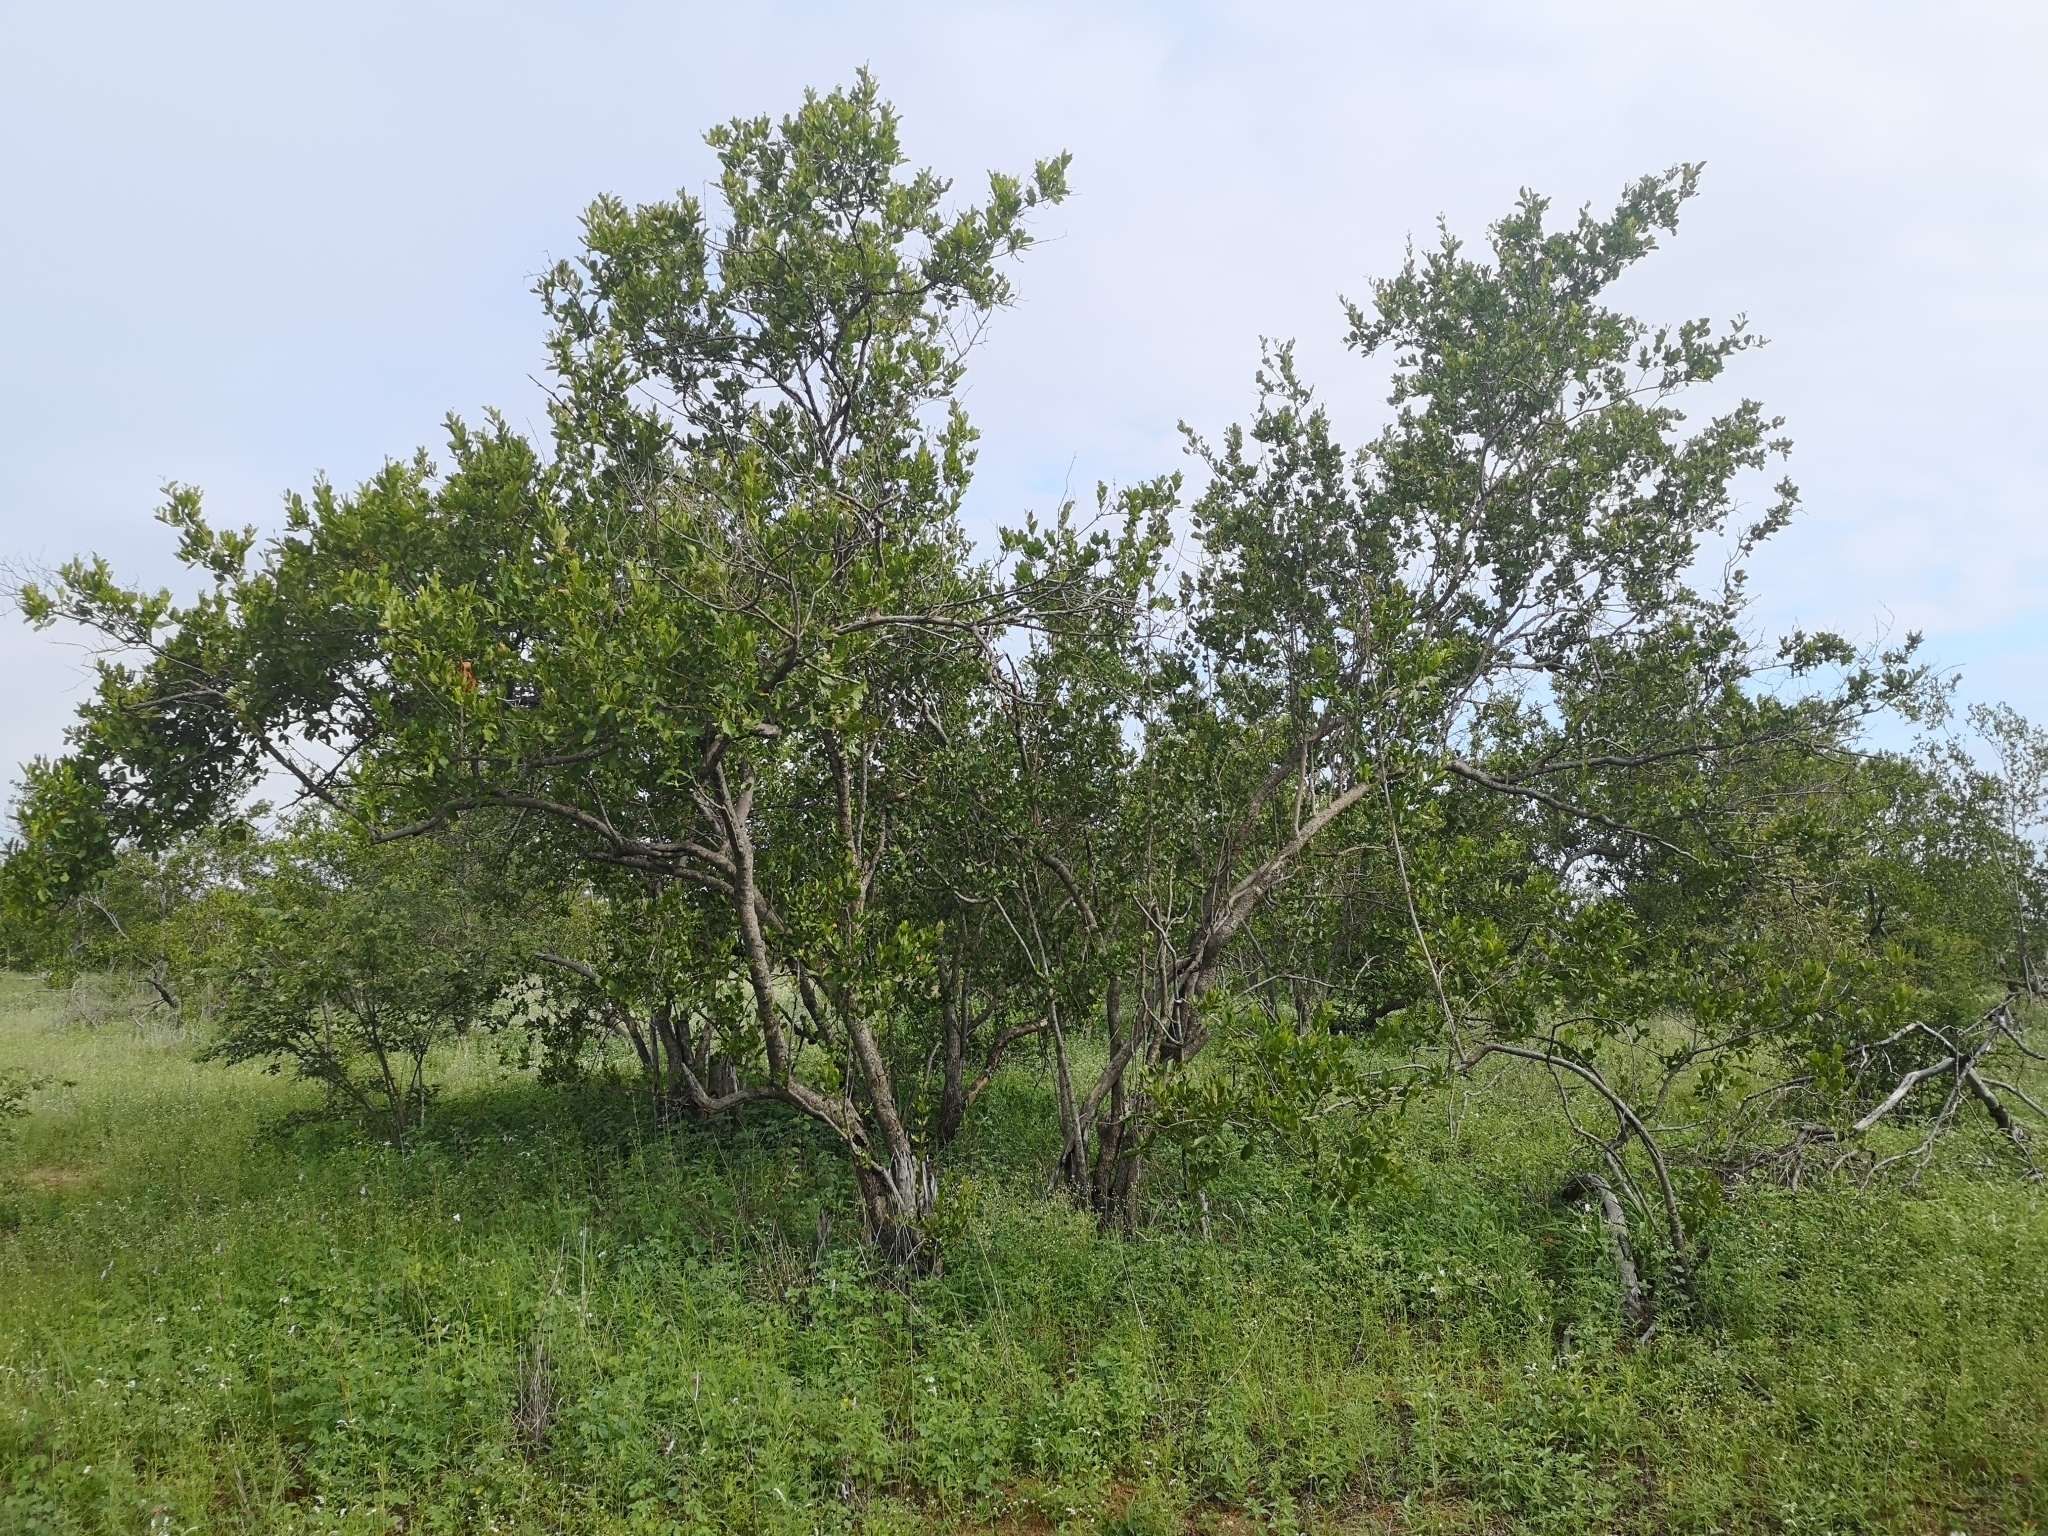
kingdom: Plantae
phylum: Tracheophyta
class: Magnoliopsida
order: Myrtales
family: Combretaceae
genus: Combretum
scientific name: Combretum apiculatum
